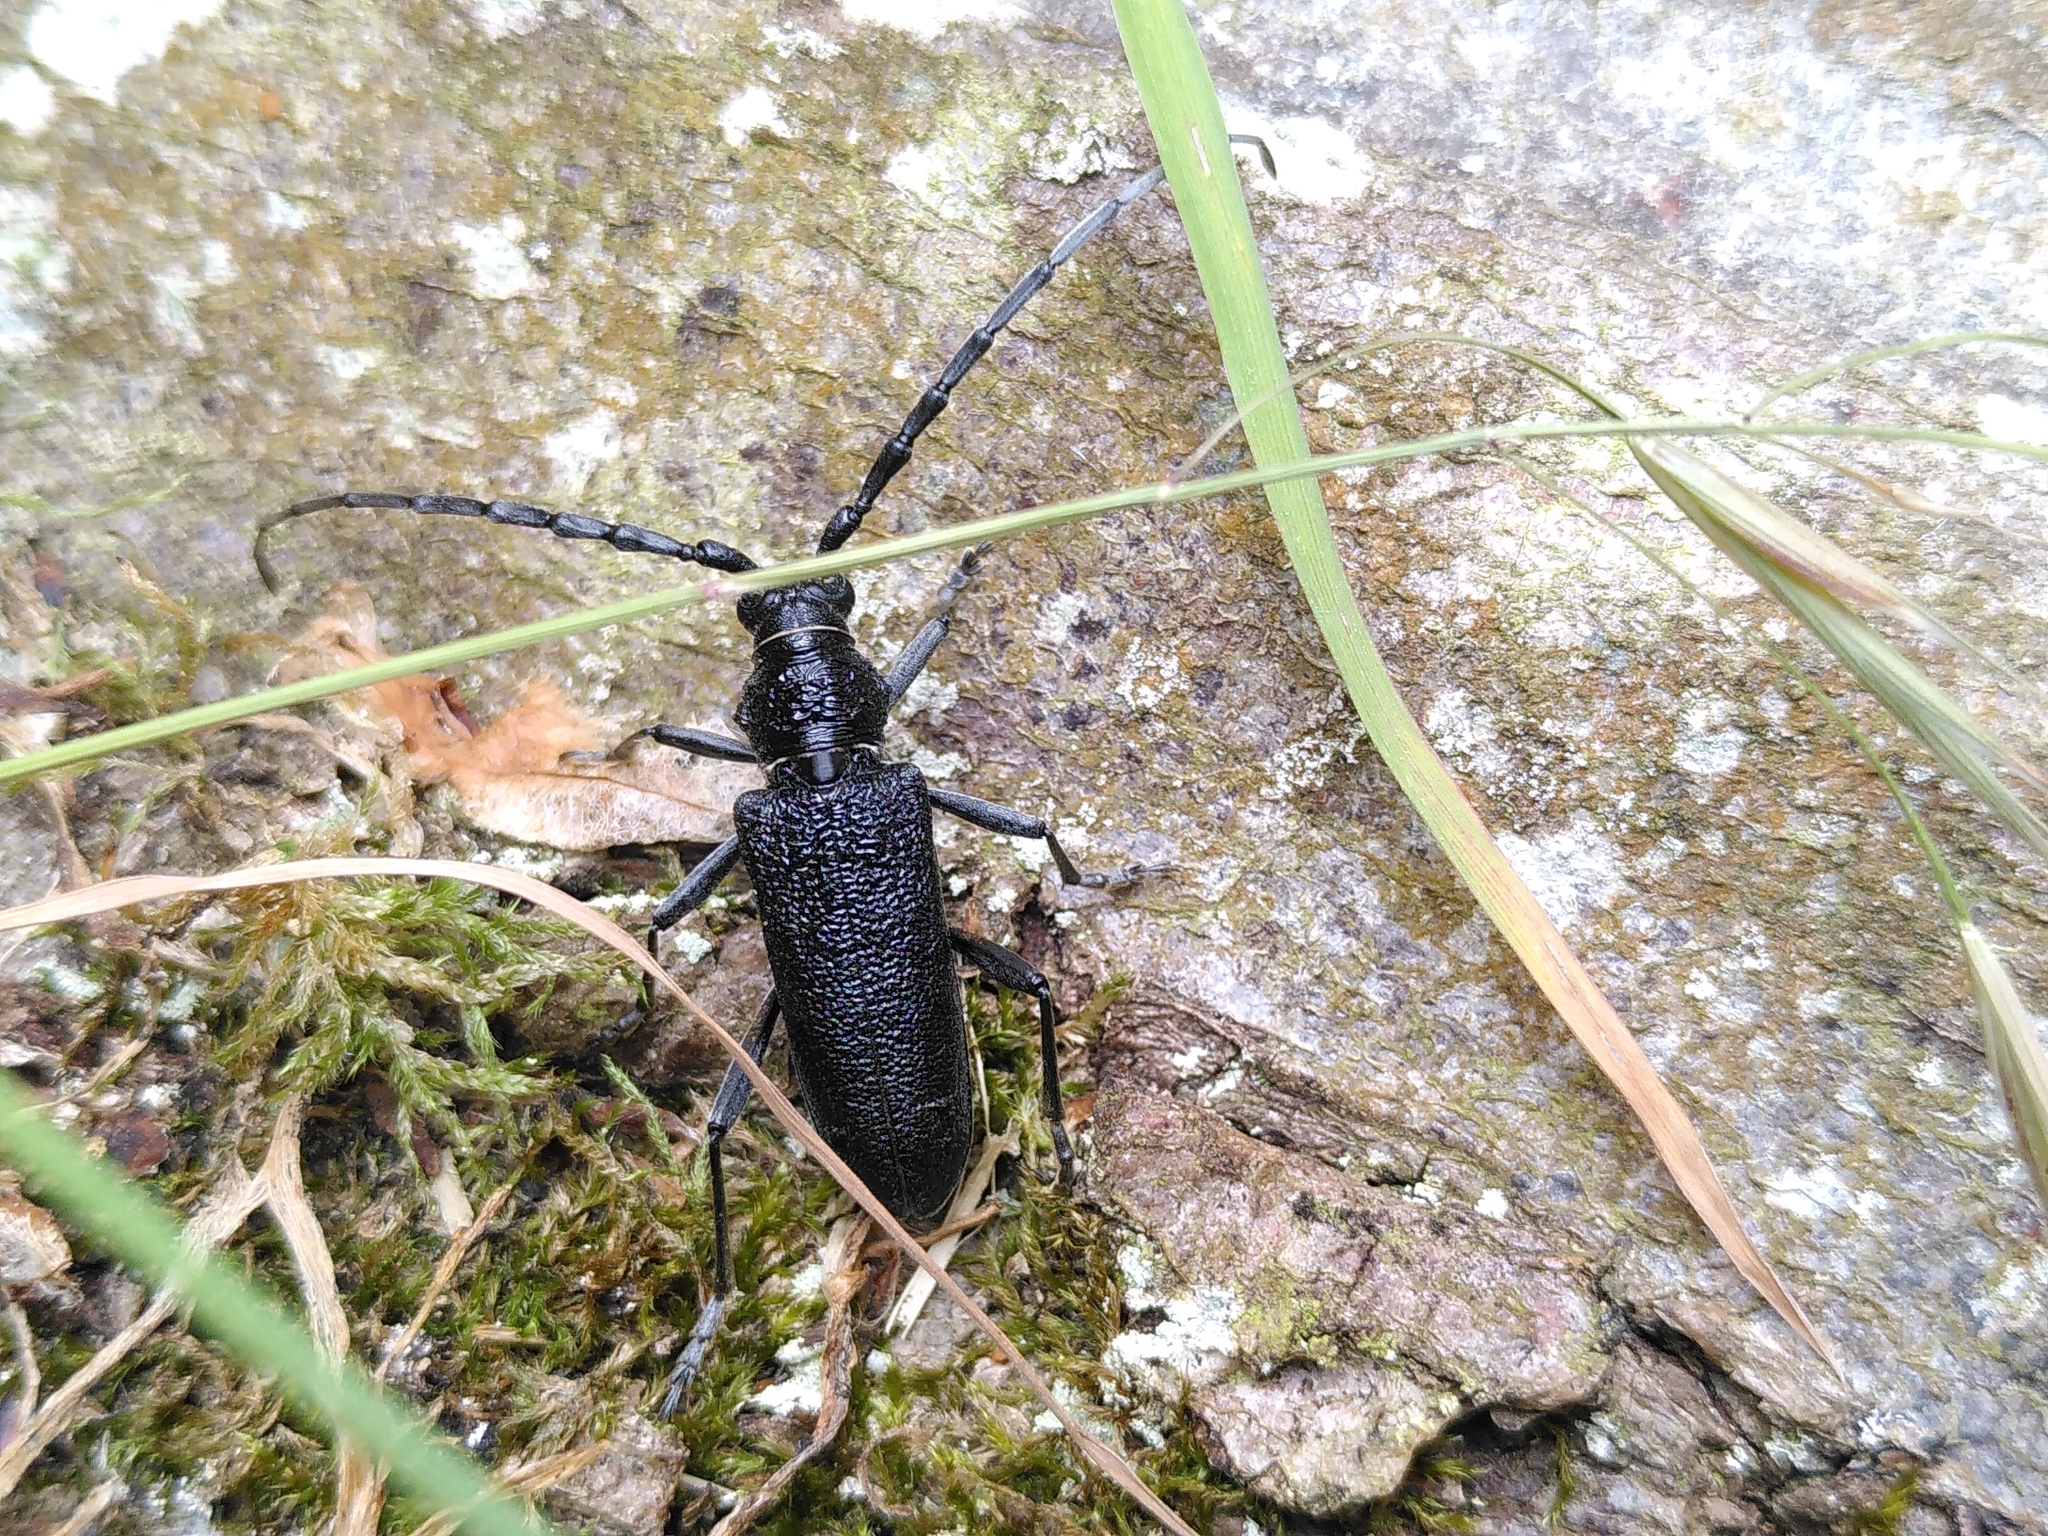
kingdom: Animalia
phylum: Arthropoda
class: Insecta
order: Coleoptera
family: Cerambycidae
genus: Cerambyx
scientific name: Cerambyx scopolii
